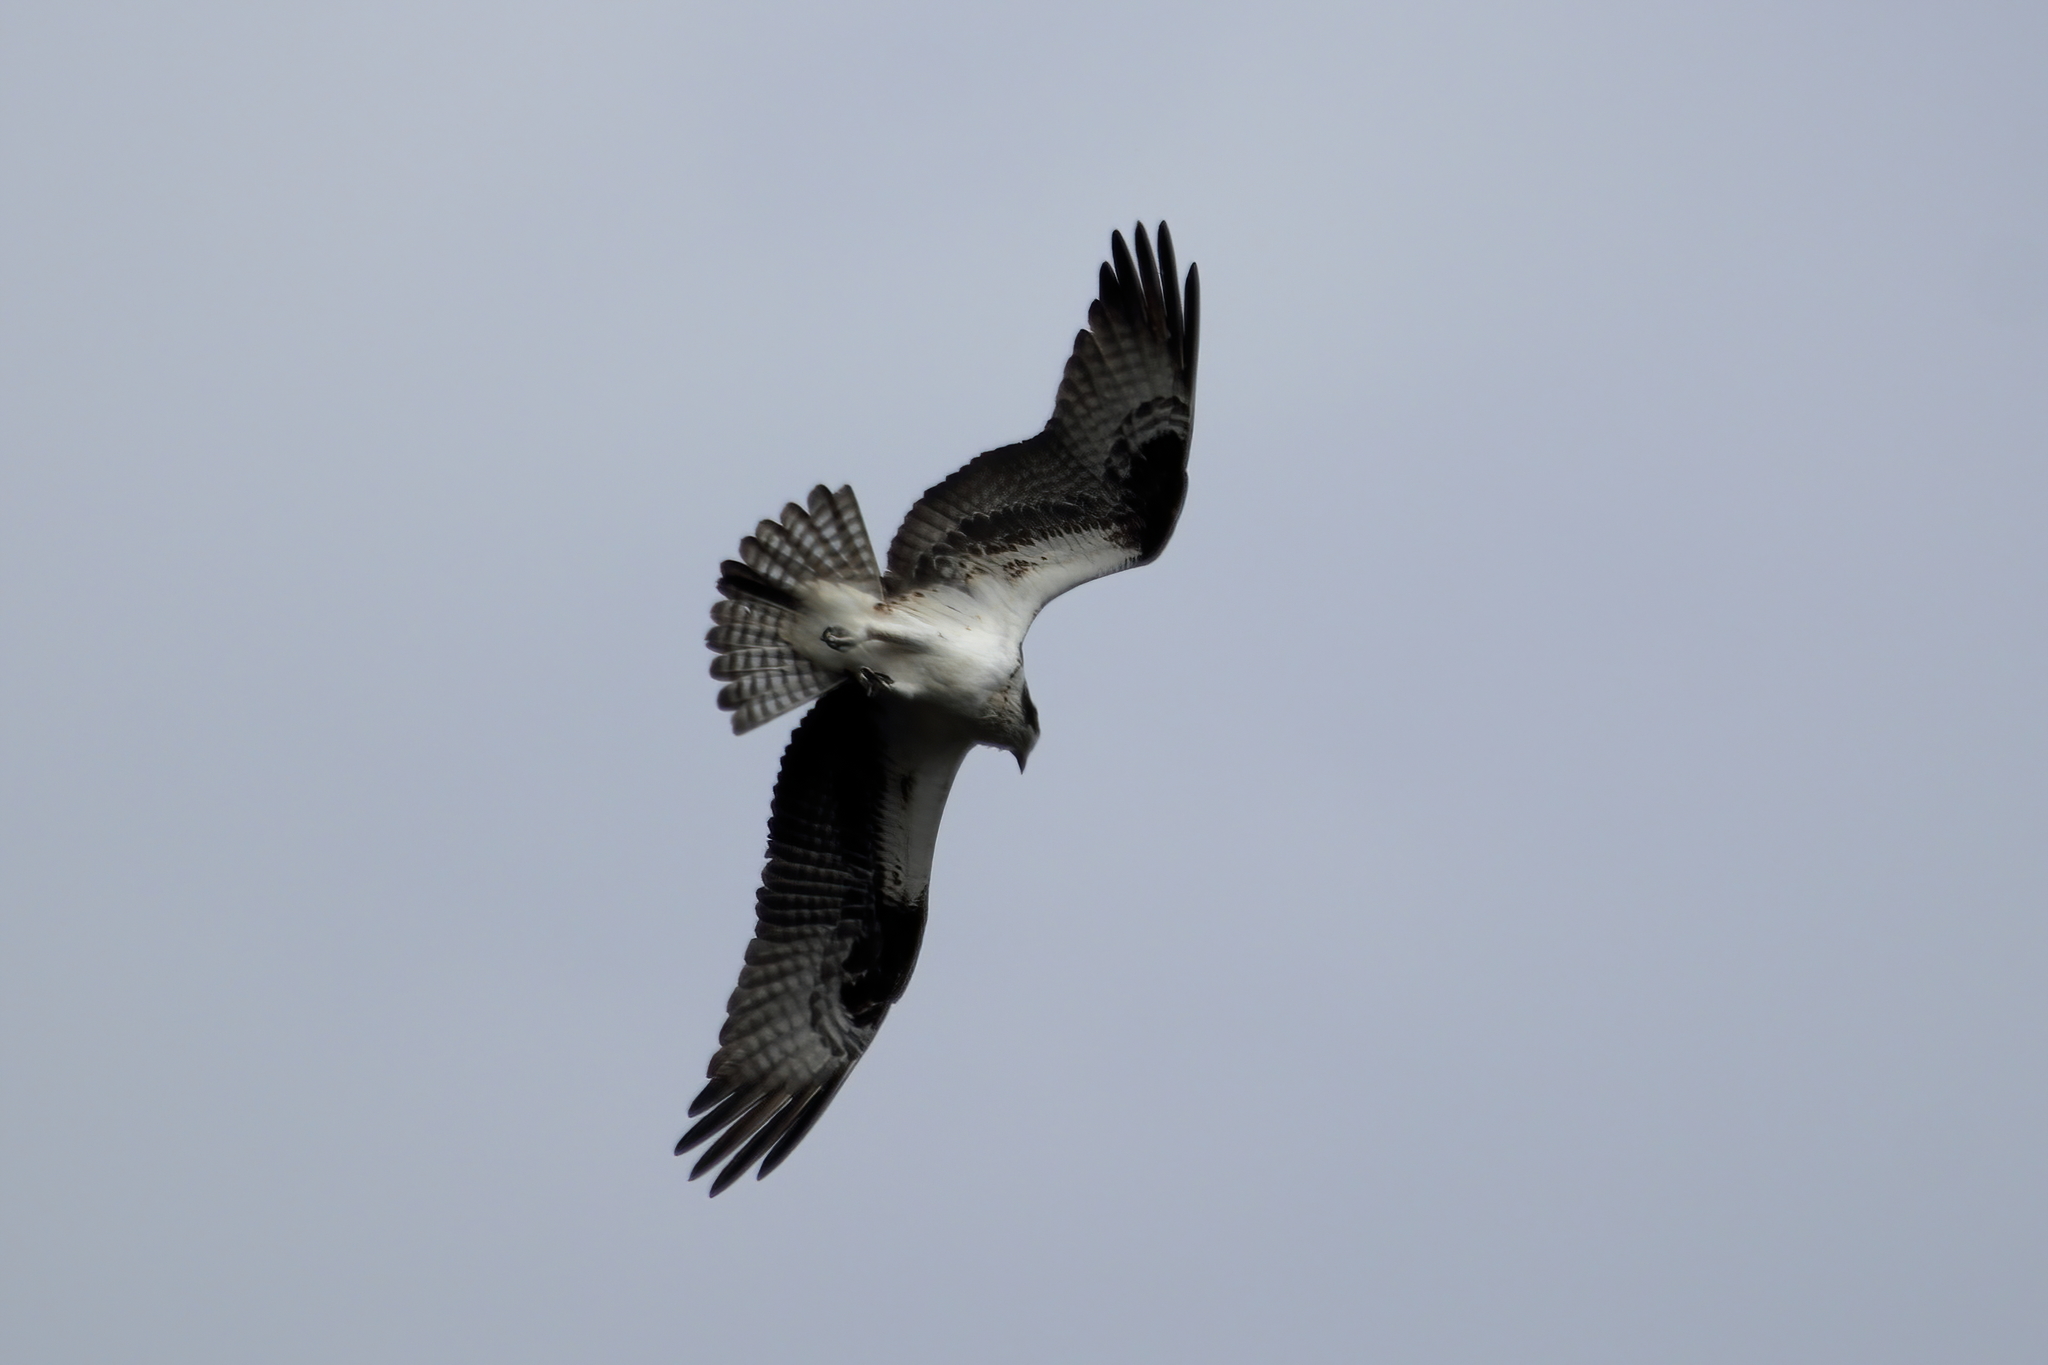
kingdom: Animalia
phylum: Chordata
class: Aves
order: Accipitriformes
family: Pandionidae
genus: Pandion
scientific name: Pandion haliaetus
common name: Osprey
